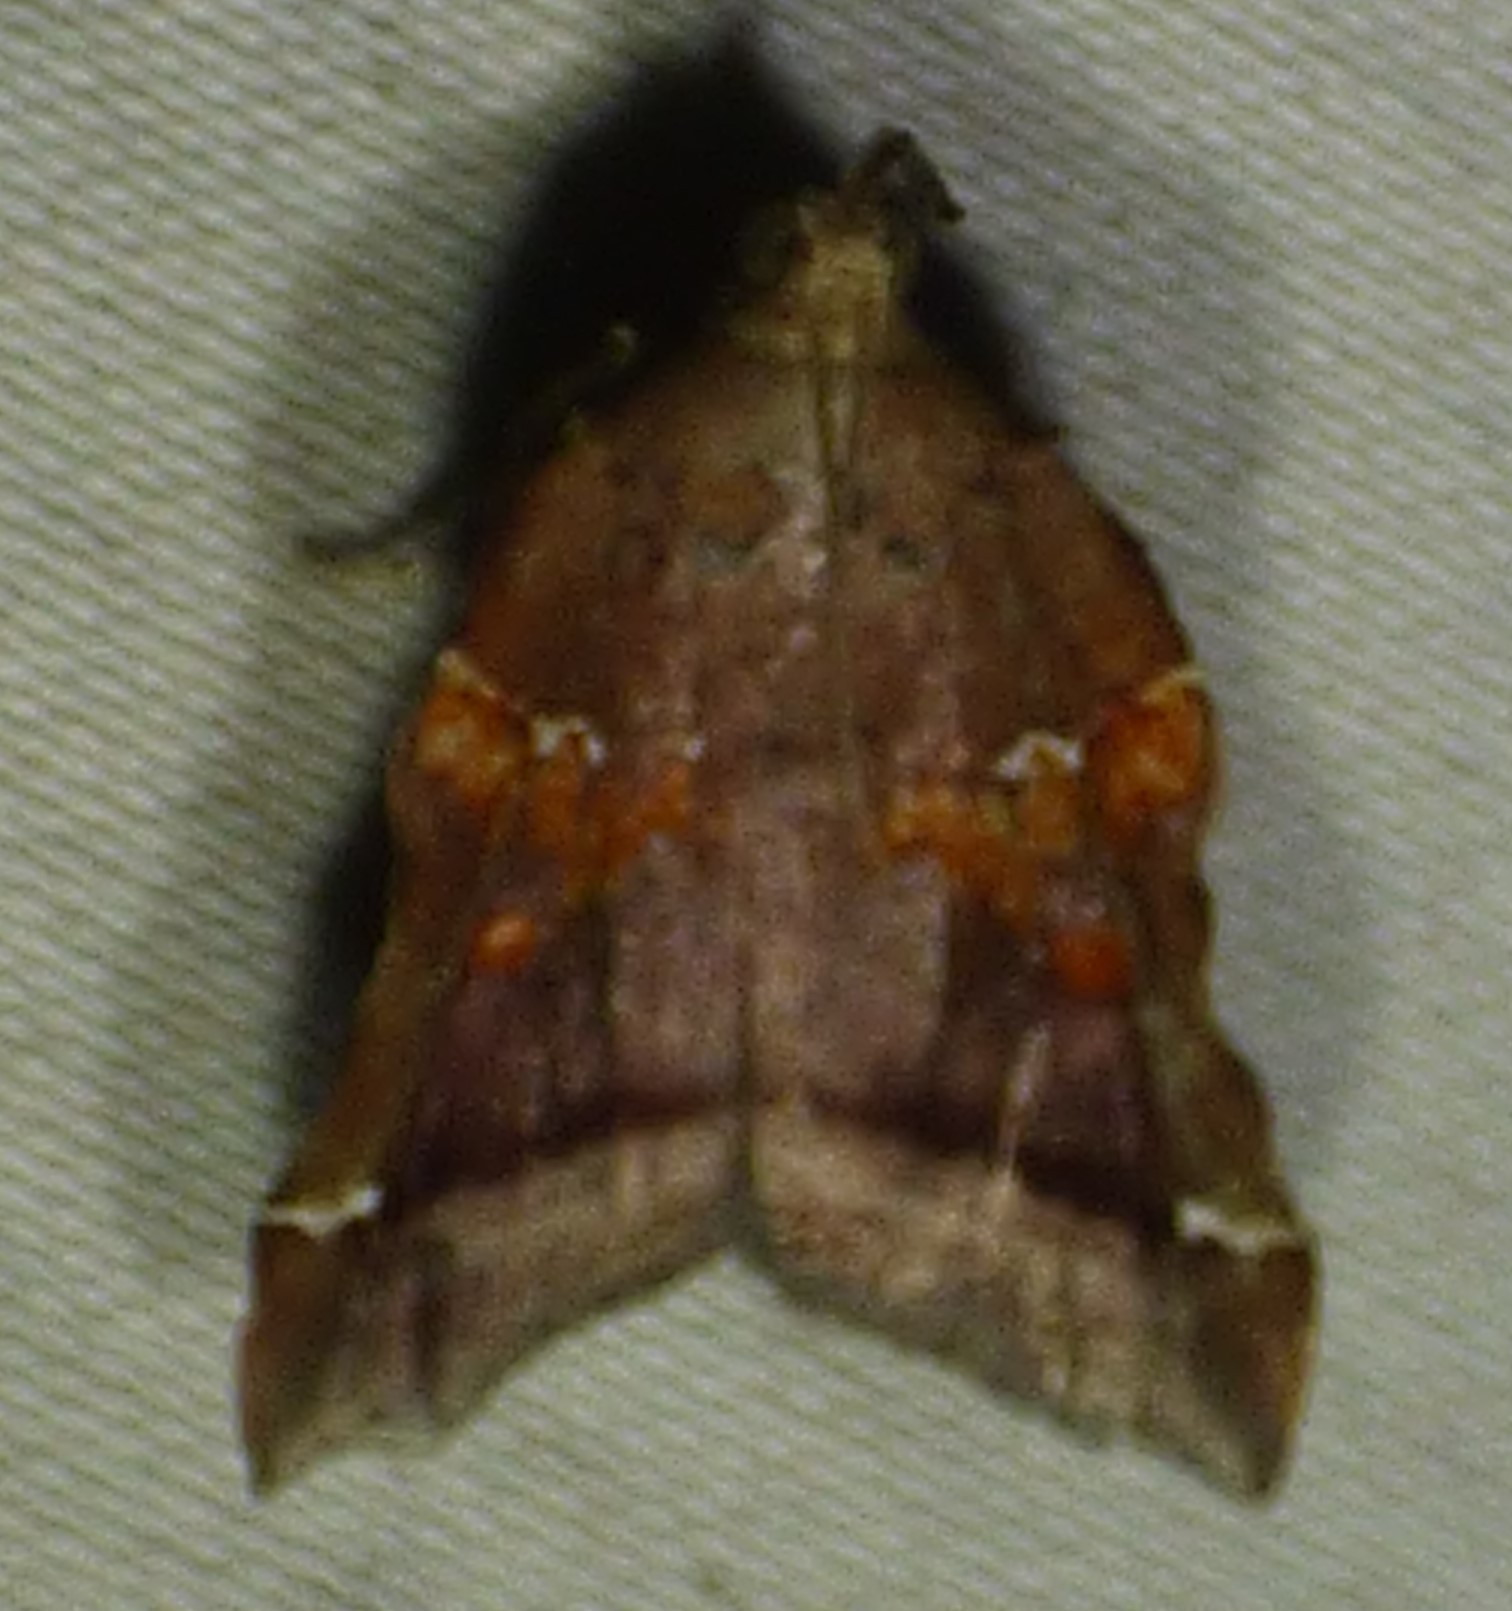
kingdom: Animalia
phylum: Arthropoda
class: Insecta
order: Lepidoptera
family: Pyralidae
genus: Clydonopteron
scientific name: Clydonopteron sacculana
